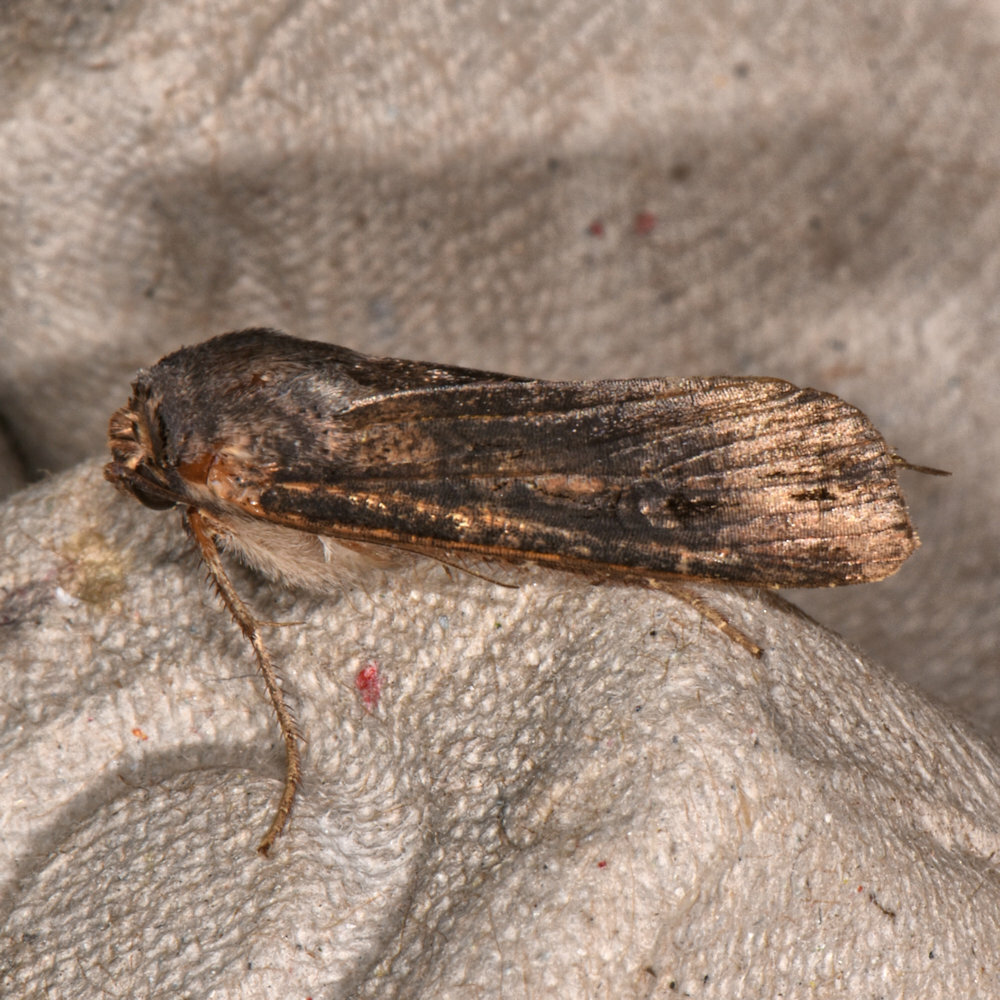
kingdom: Animalia
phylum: Arthropoda
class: Insecta
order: Lepidoptera
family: Noctuidae
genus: Agrotis
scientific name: Agrotis ipsilon
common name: Dark sword-grass
